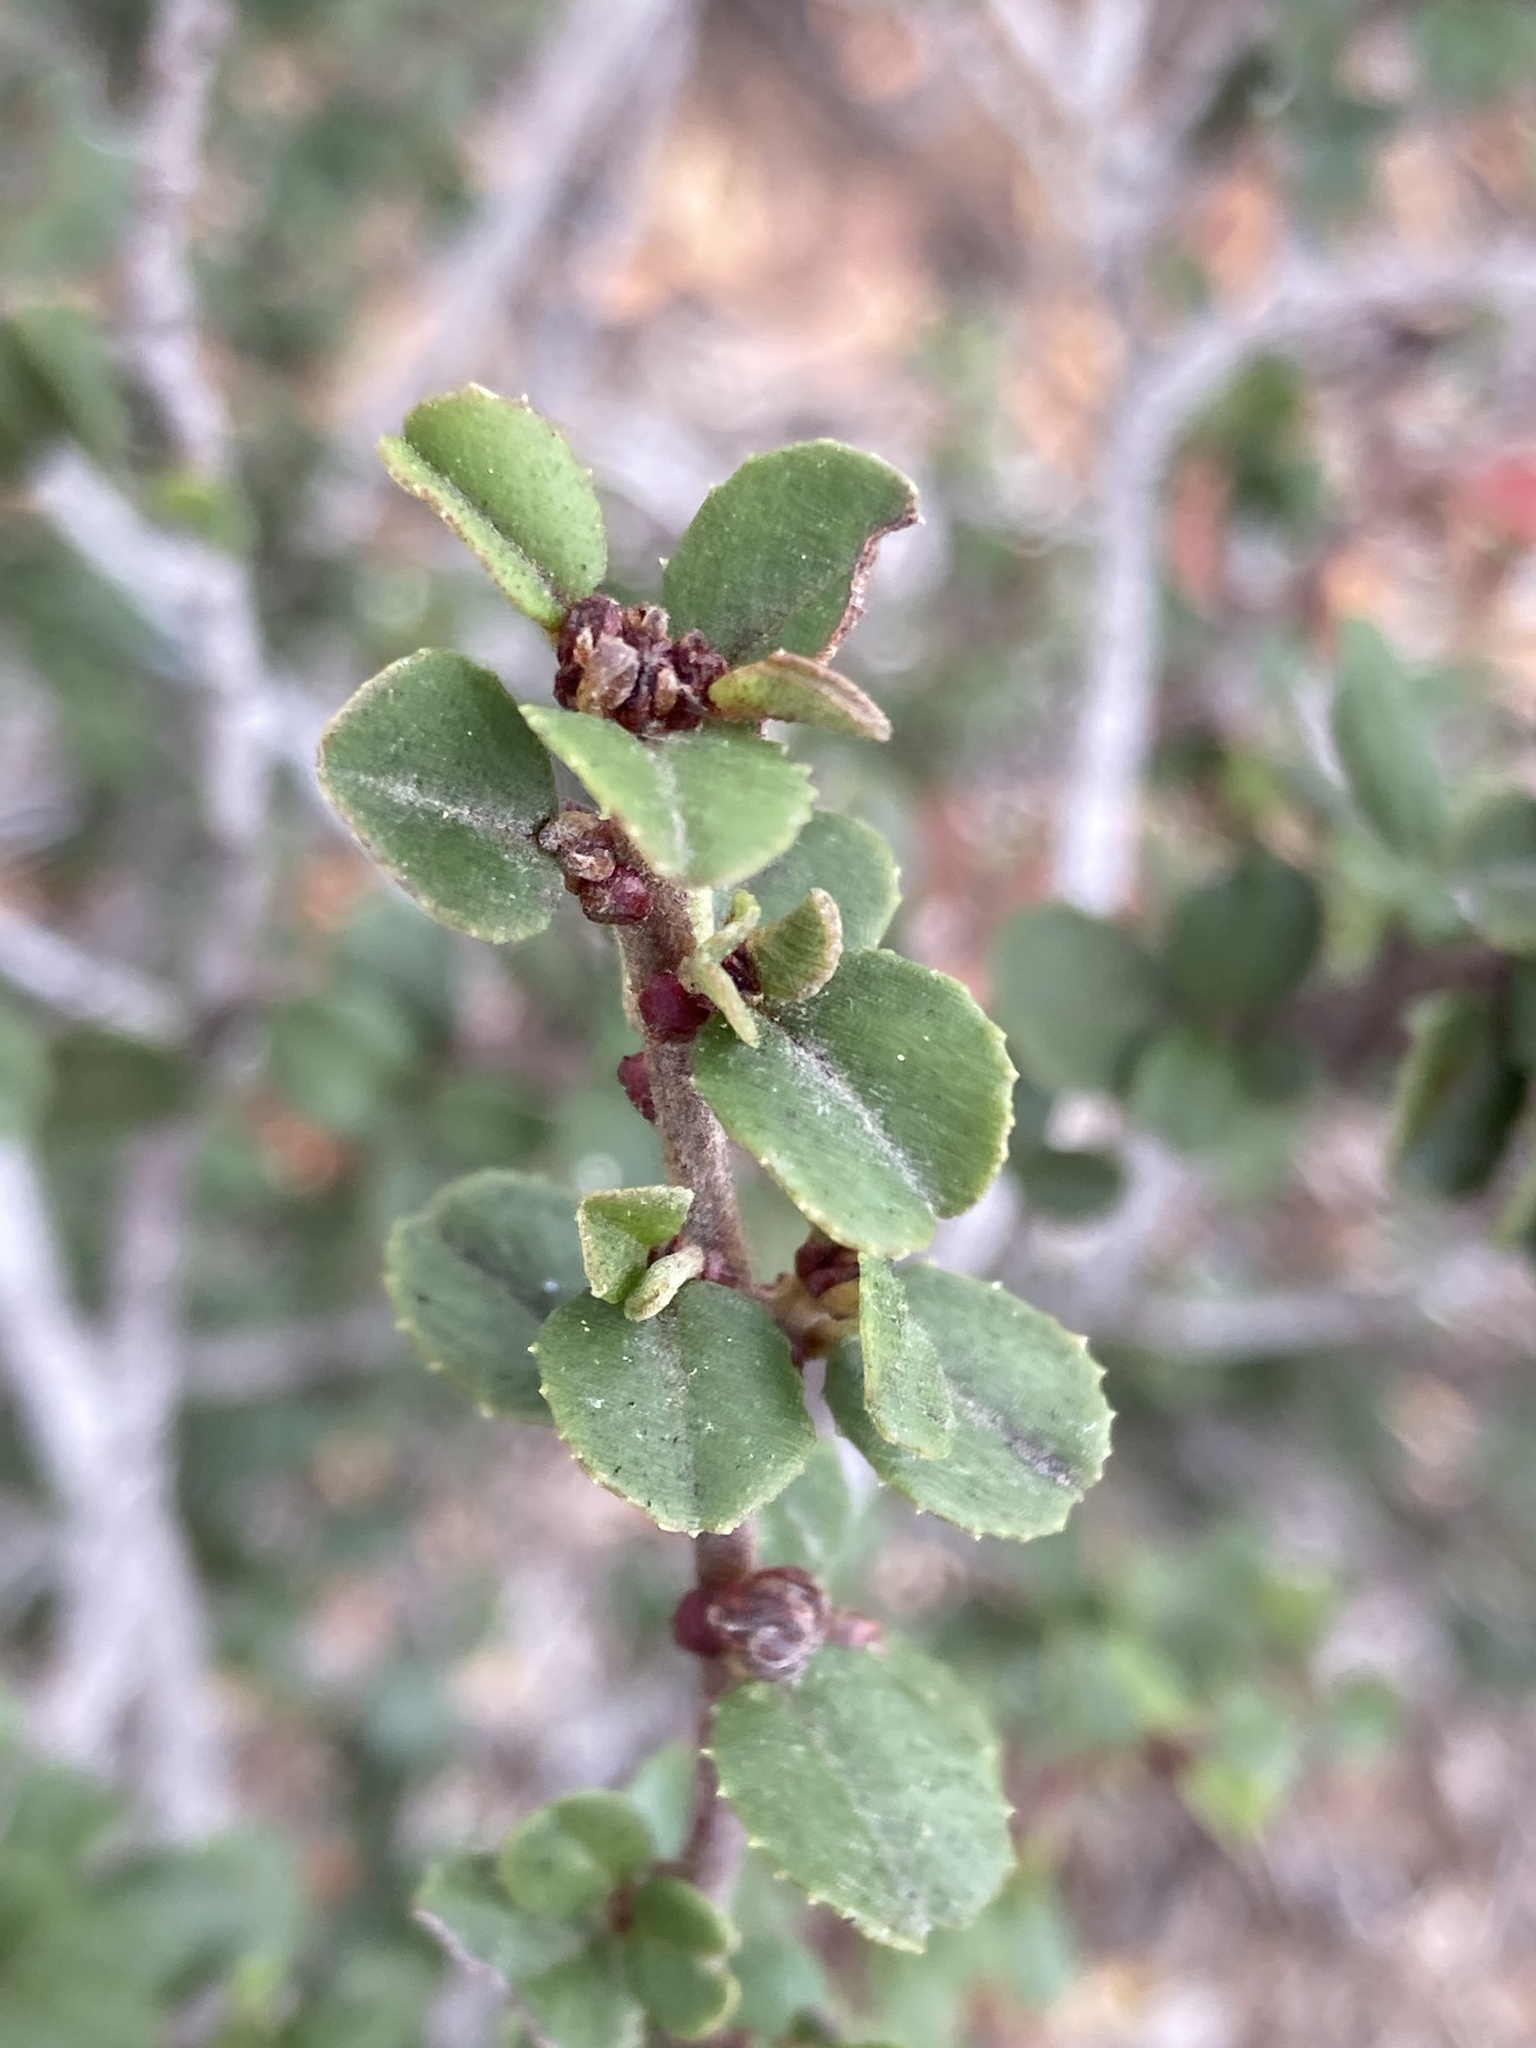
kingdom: Plantae
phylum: Tracheophyta
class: Magnoliopsida
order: Rosales
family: Rhamnaceae
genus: Ceanothus
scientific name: Ceanothus verrucosus
